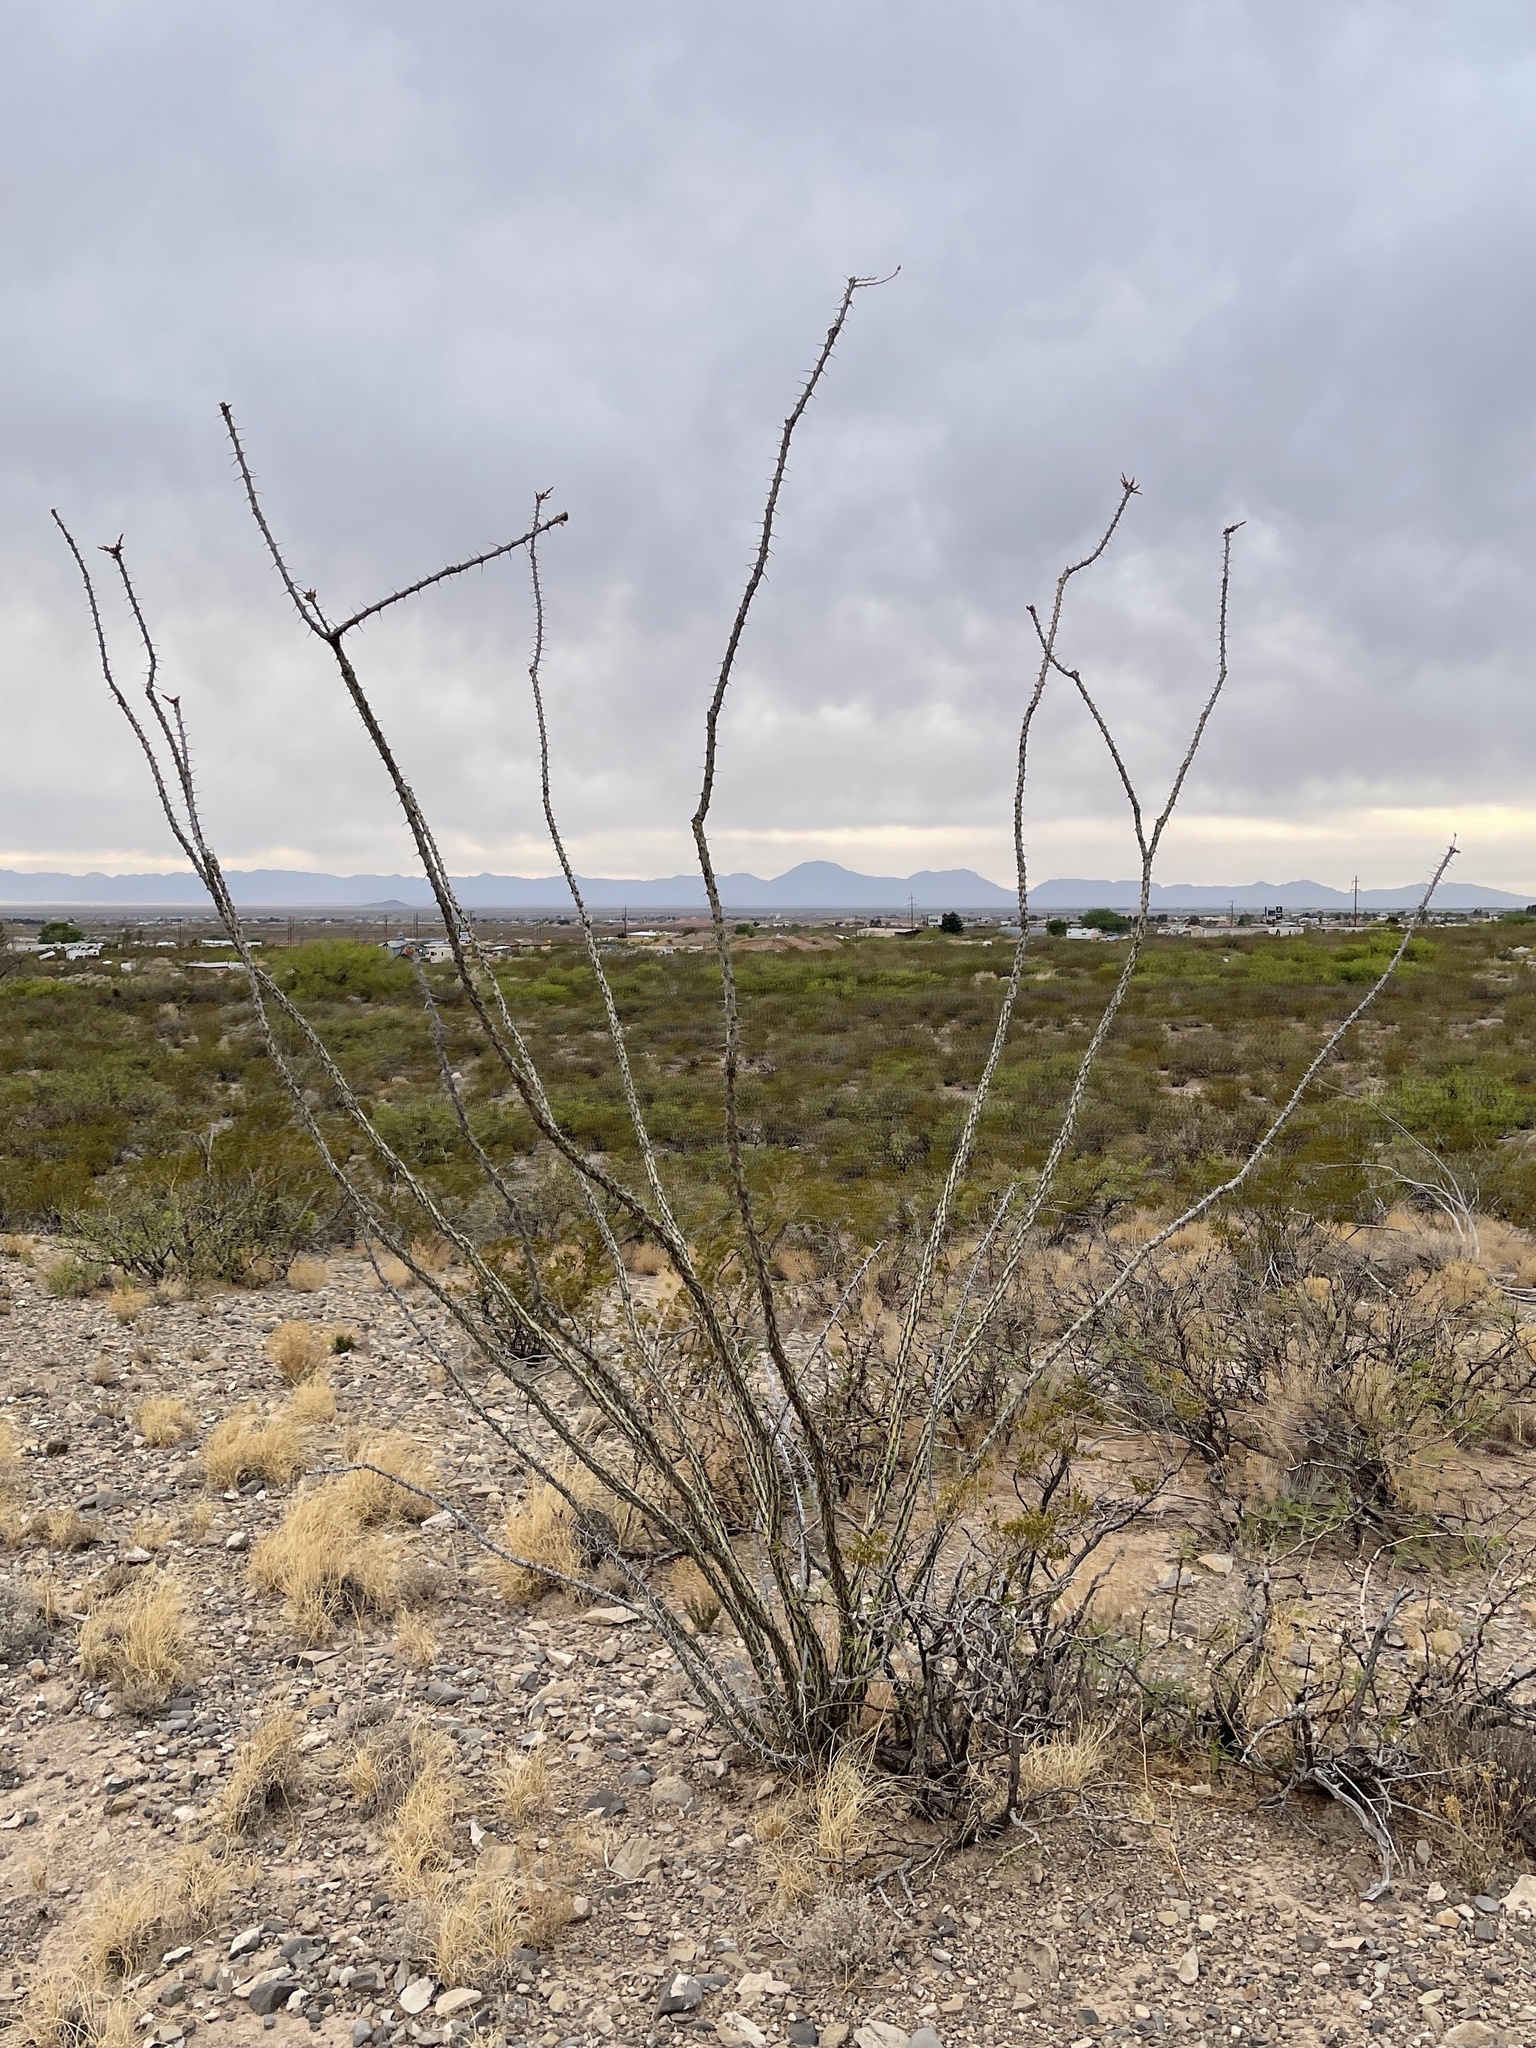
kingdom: Plantae
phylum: Tracheophyta
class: Magnoliopsida
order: Ericales
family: Fouquieriaceae
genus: Fouquieria
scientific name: Fouquieria splendens
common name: Vine-cactus
